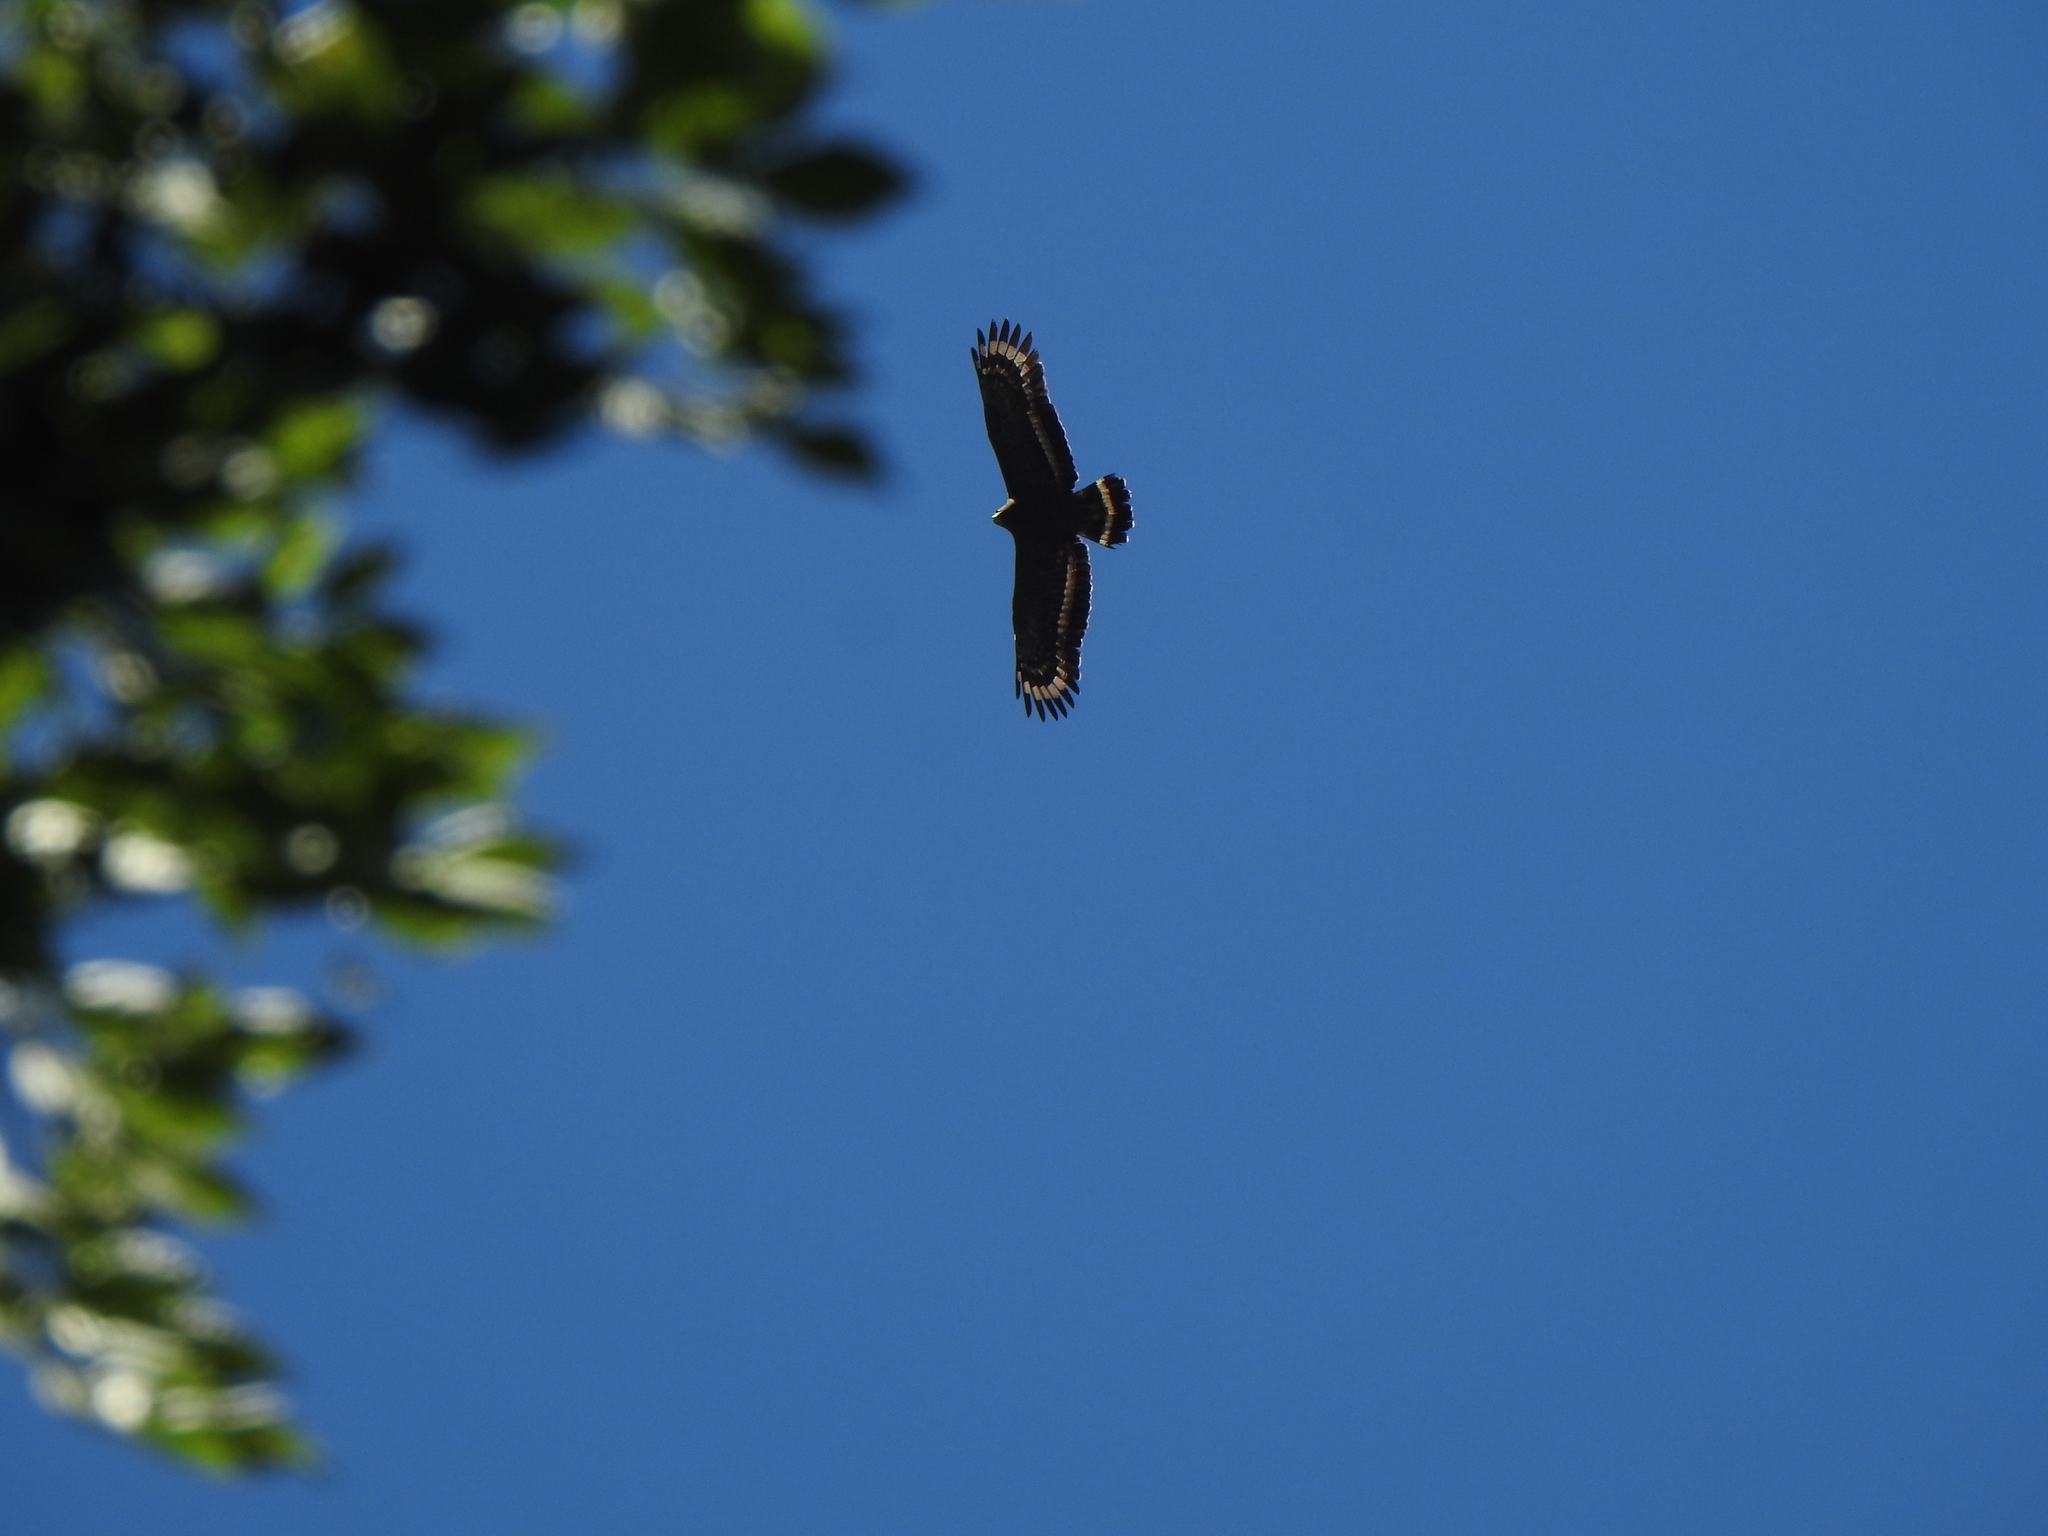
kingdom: Animalia
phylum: Chordata
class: Aves
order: Accipitriformes
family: Accipitridae
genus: Spilornis
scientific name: Spilornis cheela
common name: Crested serpent eagle
